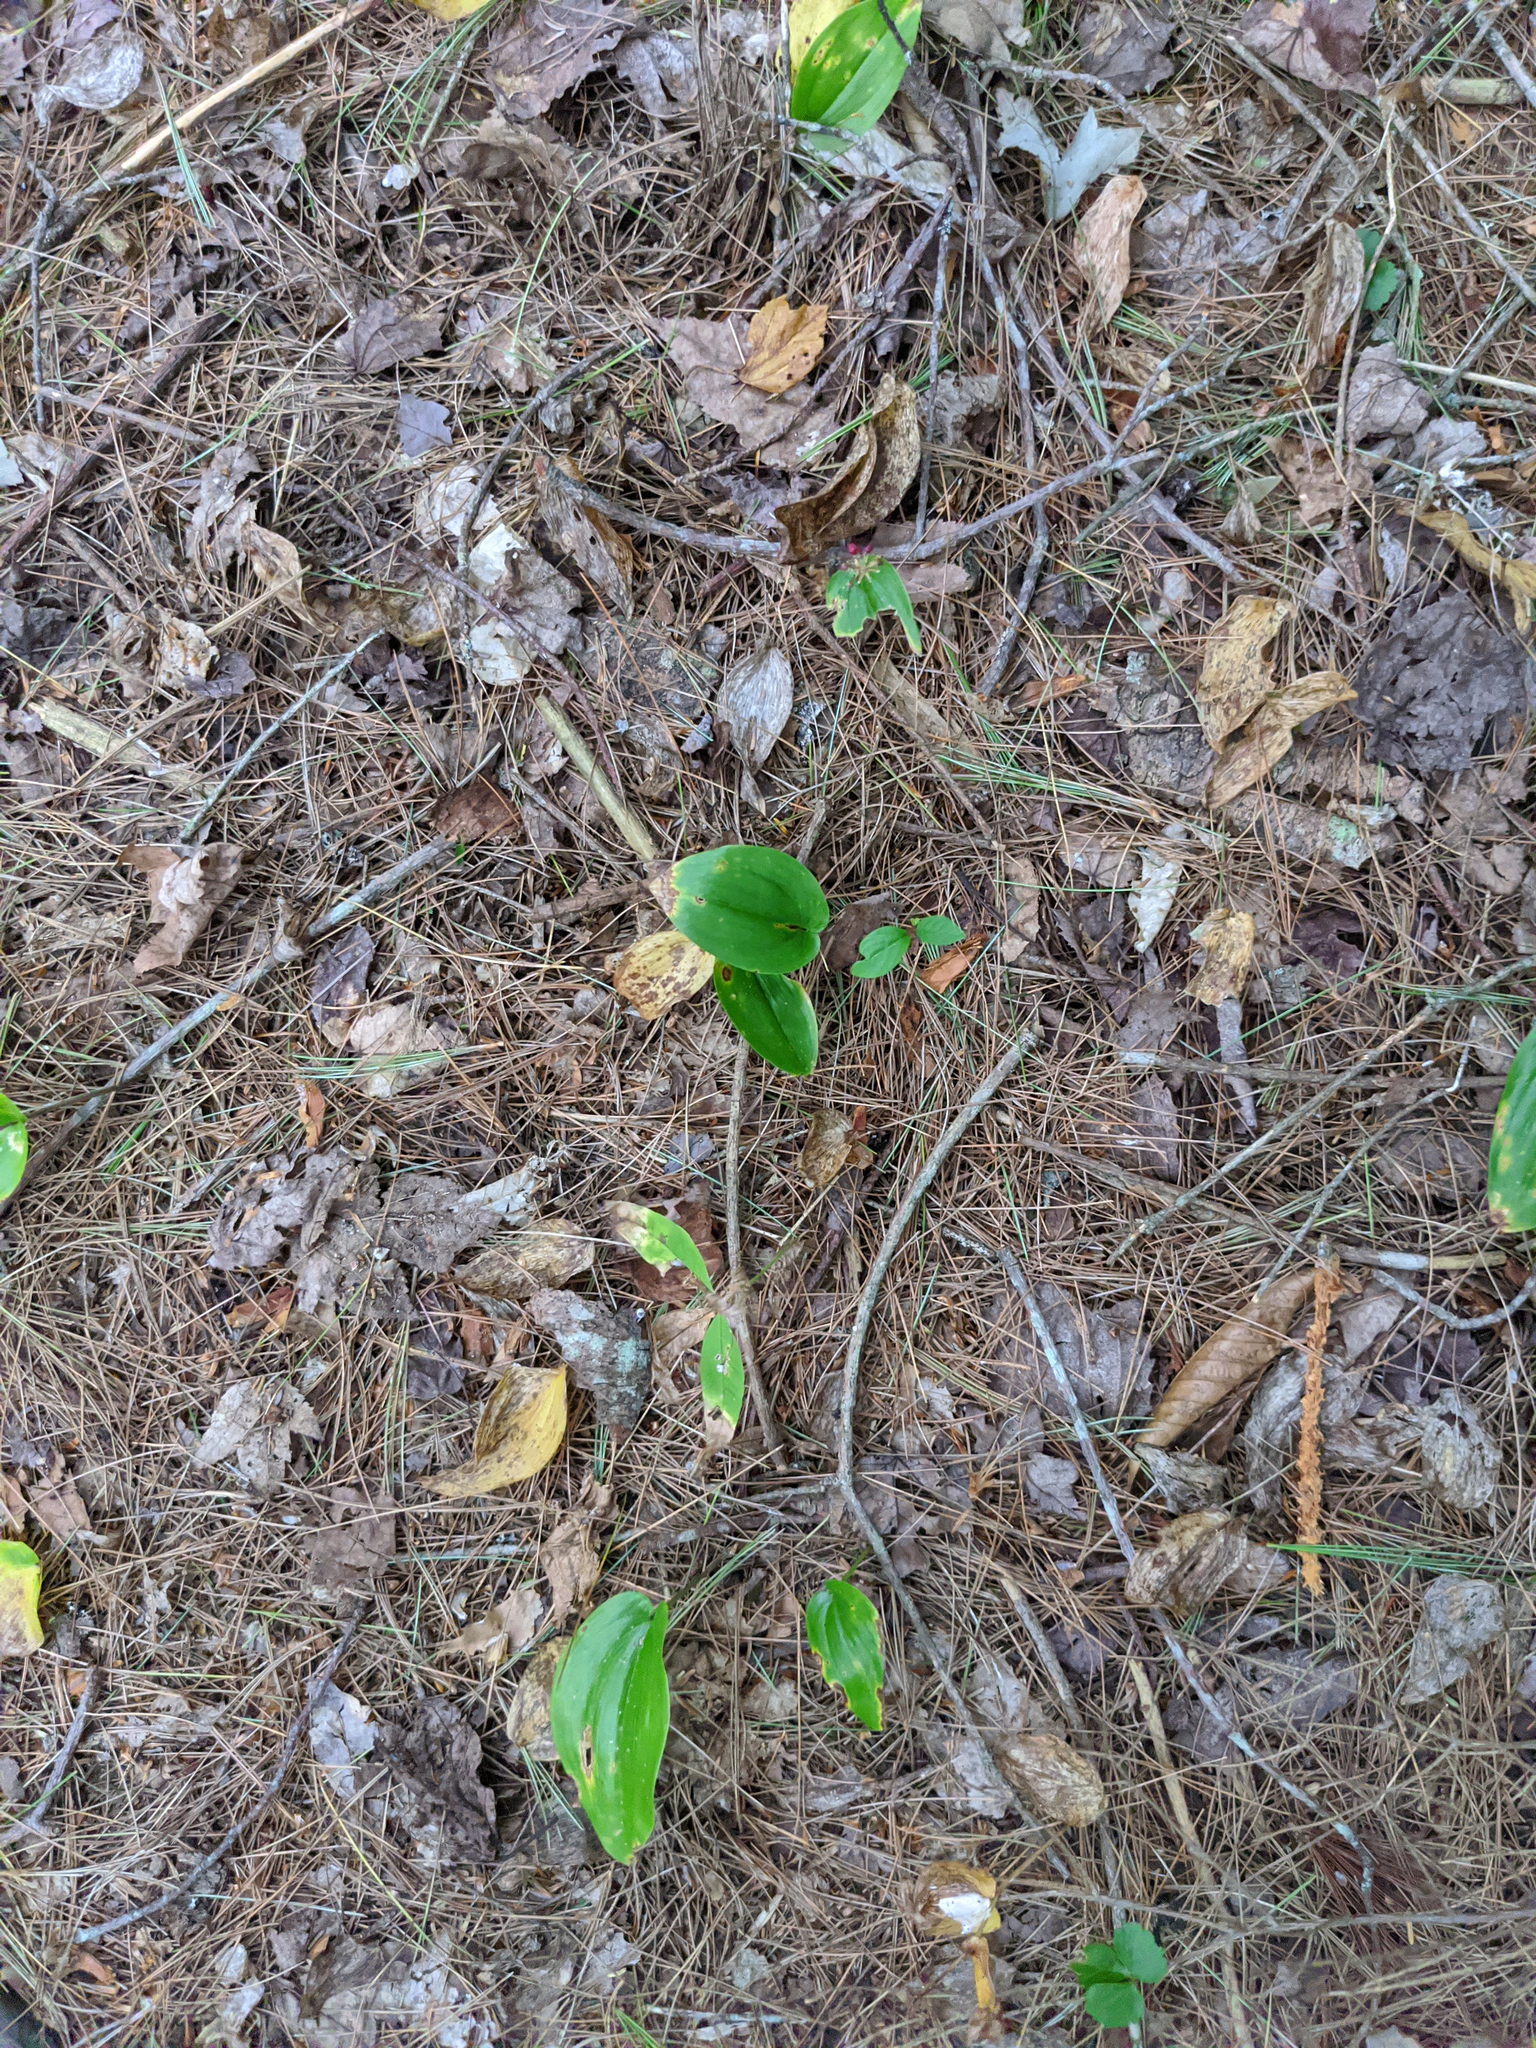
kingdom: Plantae
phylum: Tracheophyta
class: Liliopsida
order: Asparagales
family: Asparagaceae
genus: Maianthemum
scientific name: Maianthemum canadense
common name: False lily-of-the-valley
